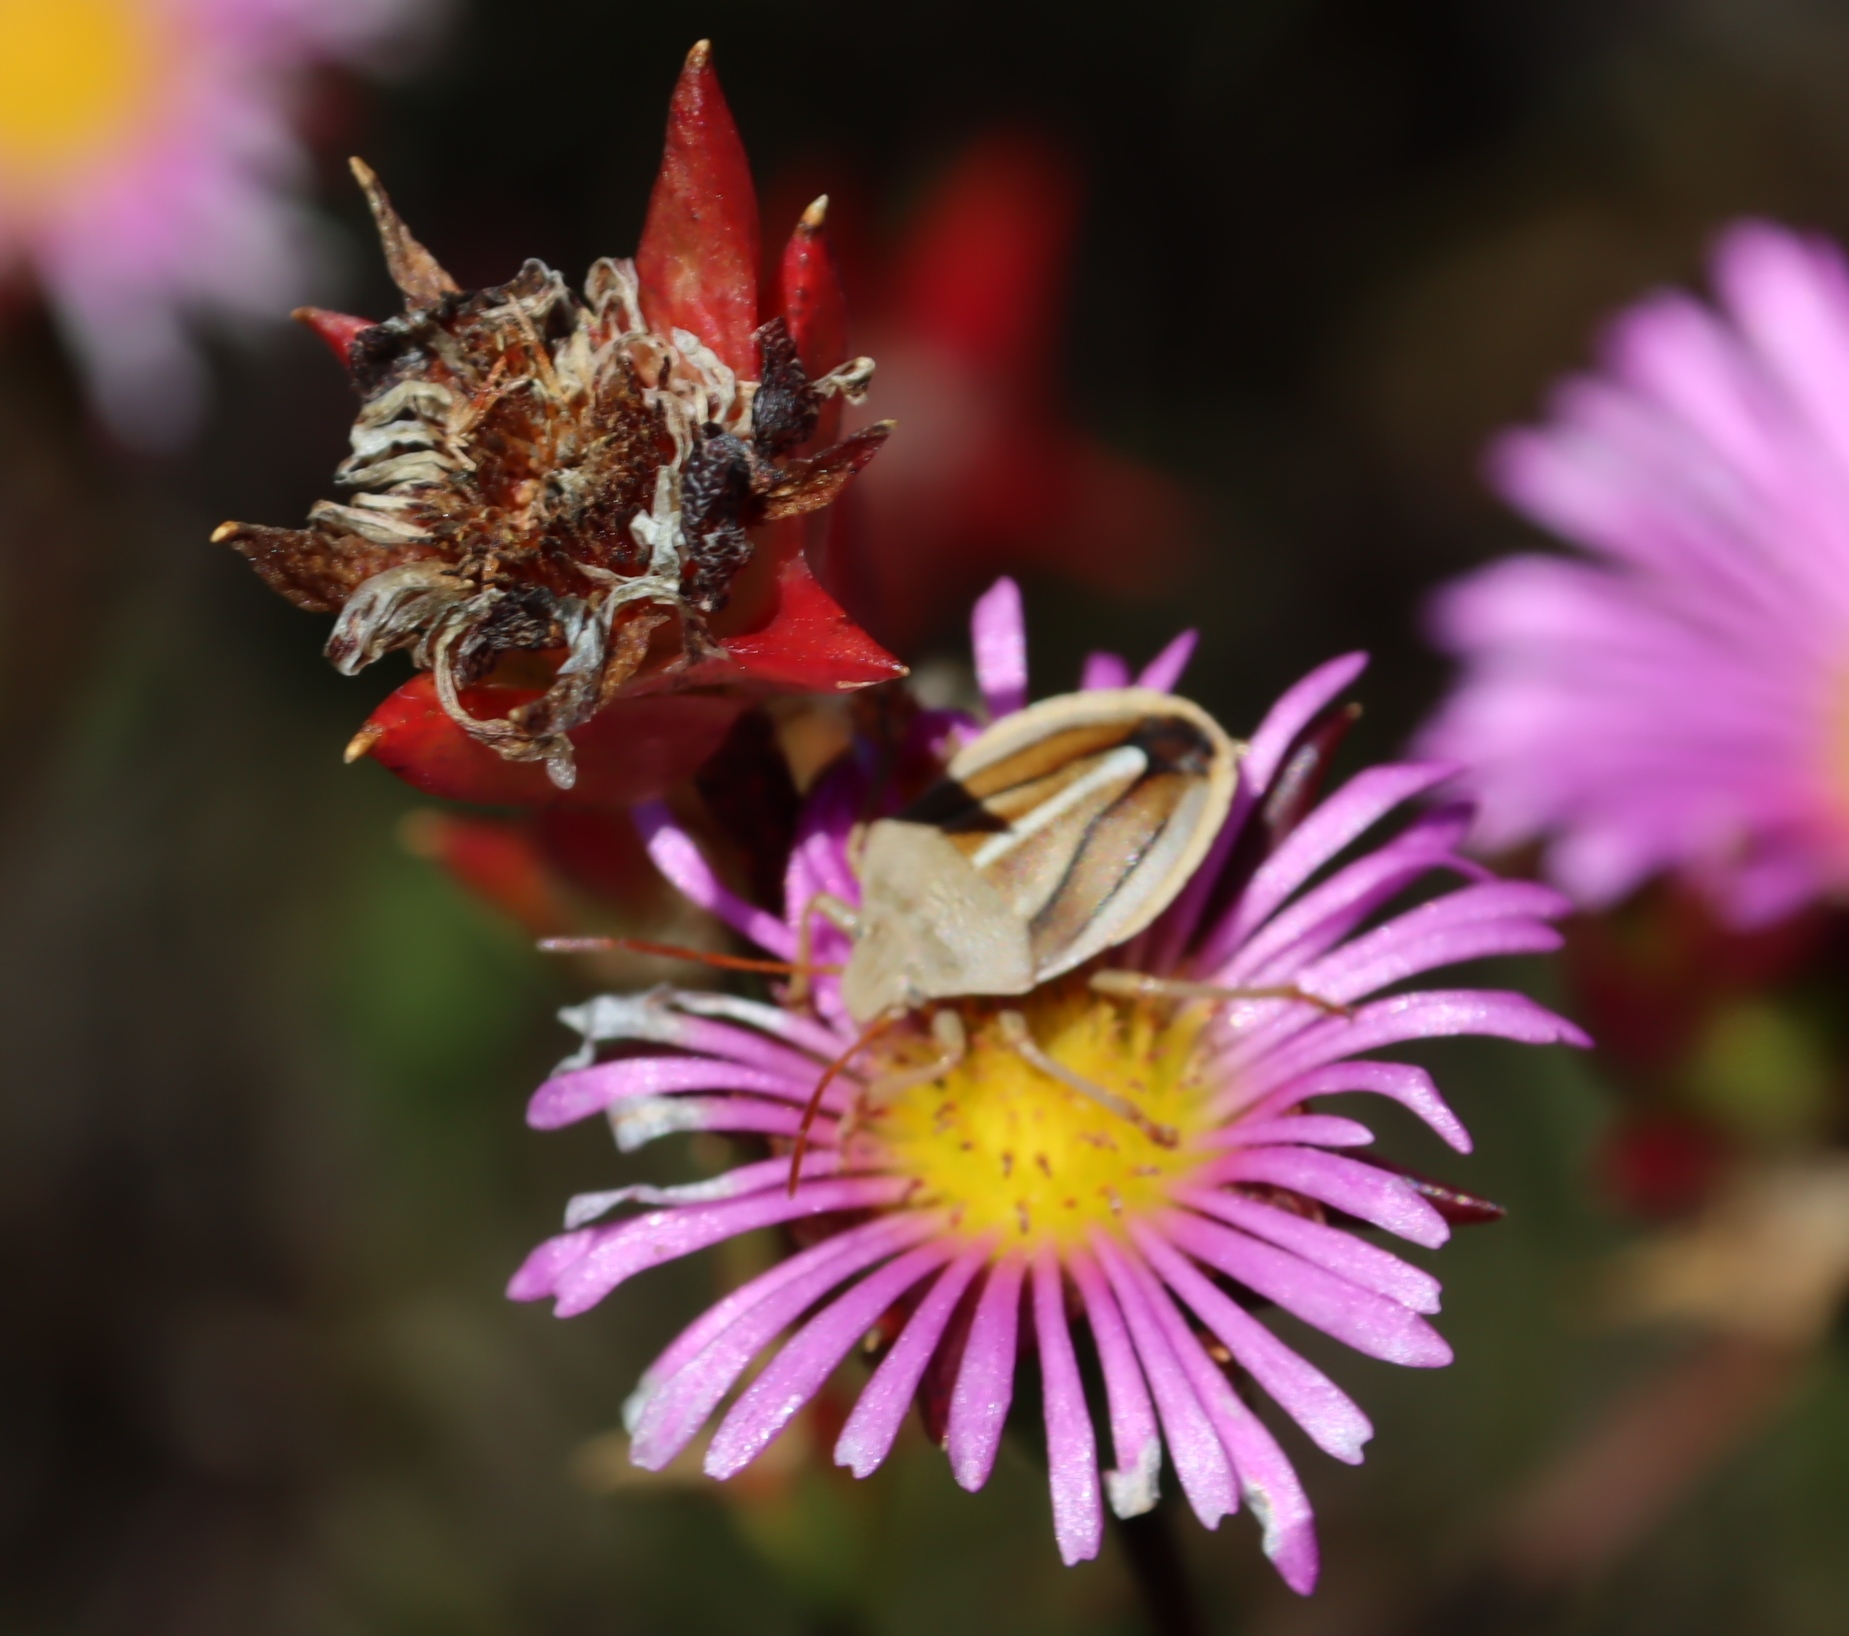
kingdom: Animalia
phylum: Arthropoda
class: Insecta
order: Hemiptera
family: Pentatomidae
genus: Theloris
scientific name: Theloris costata
